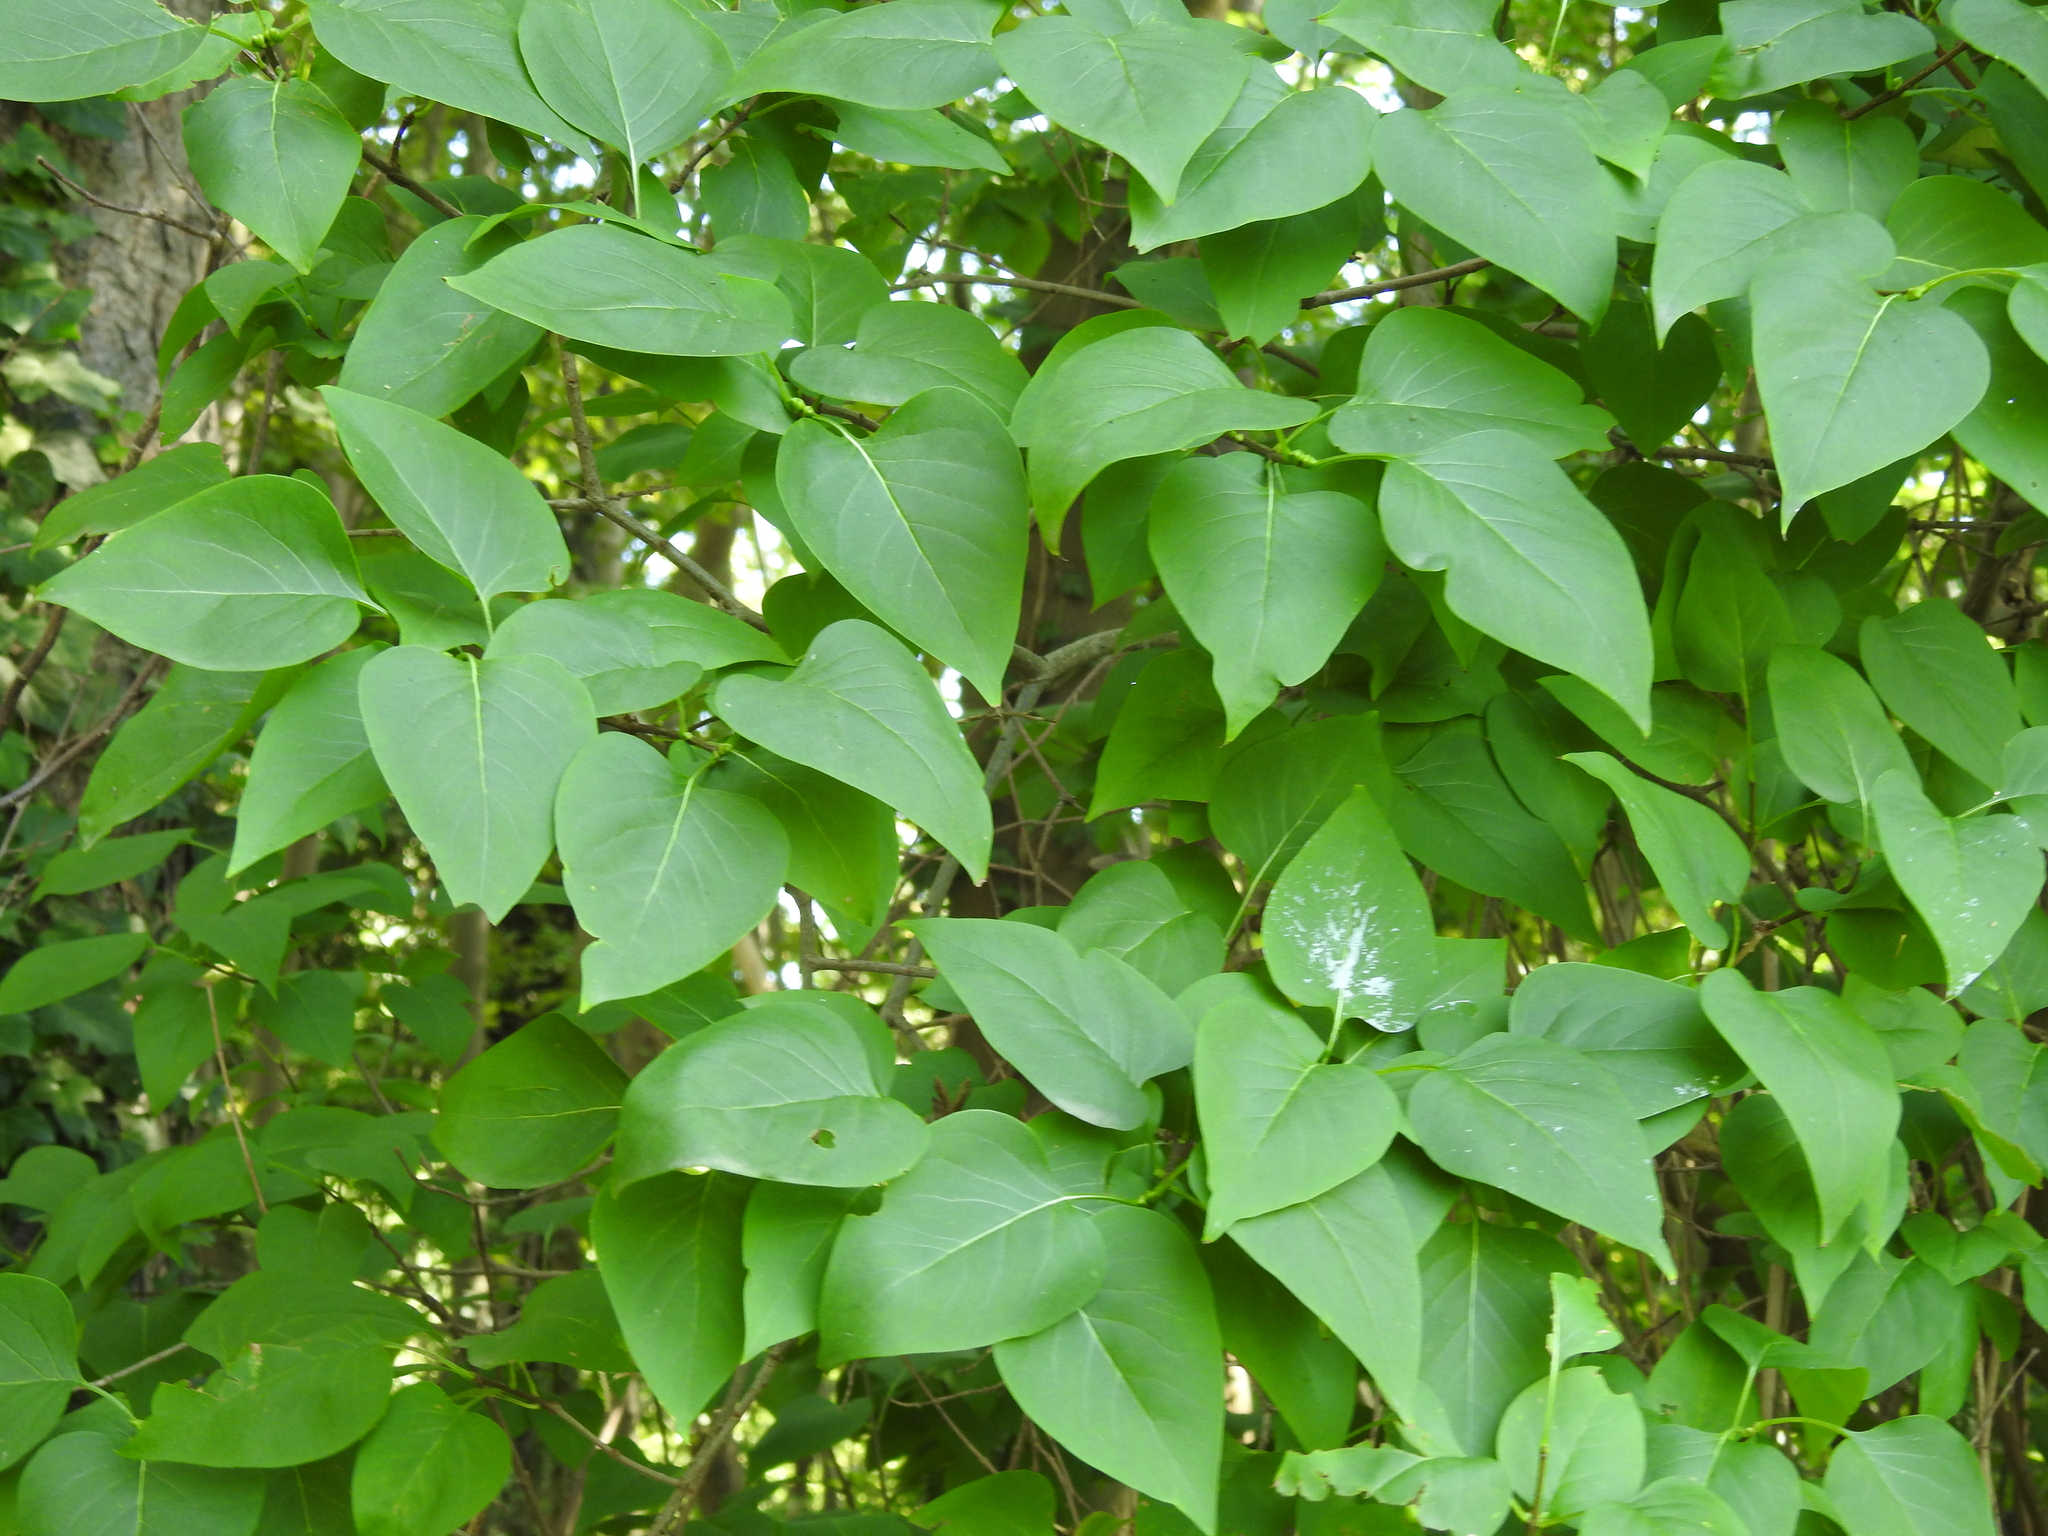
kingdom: Plantae
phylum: Tracheophyta
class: Magnoliopsida
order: Lamiales
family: Oleaceae
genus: Syringa
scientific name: Syringa vulgaris
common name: Common lilac
